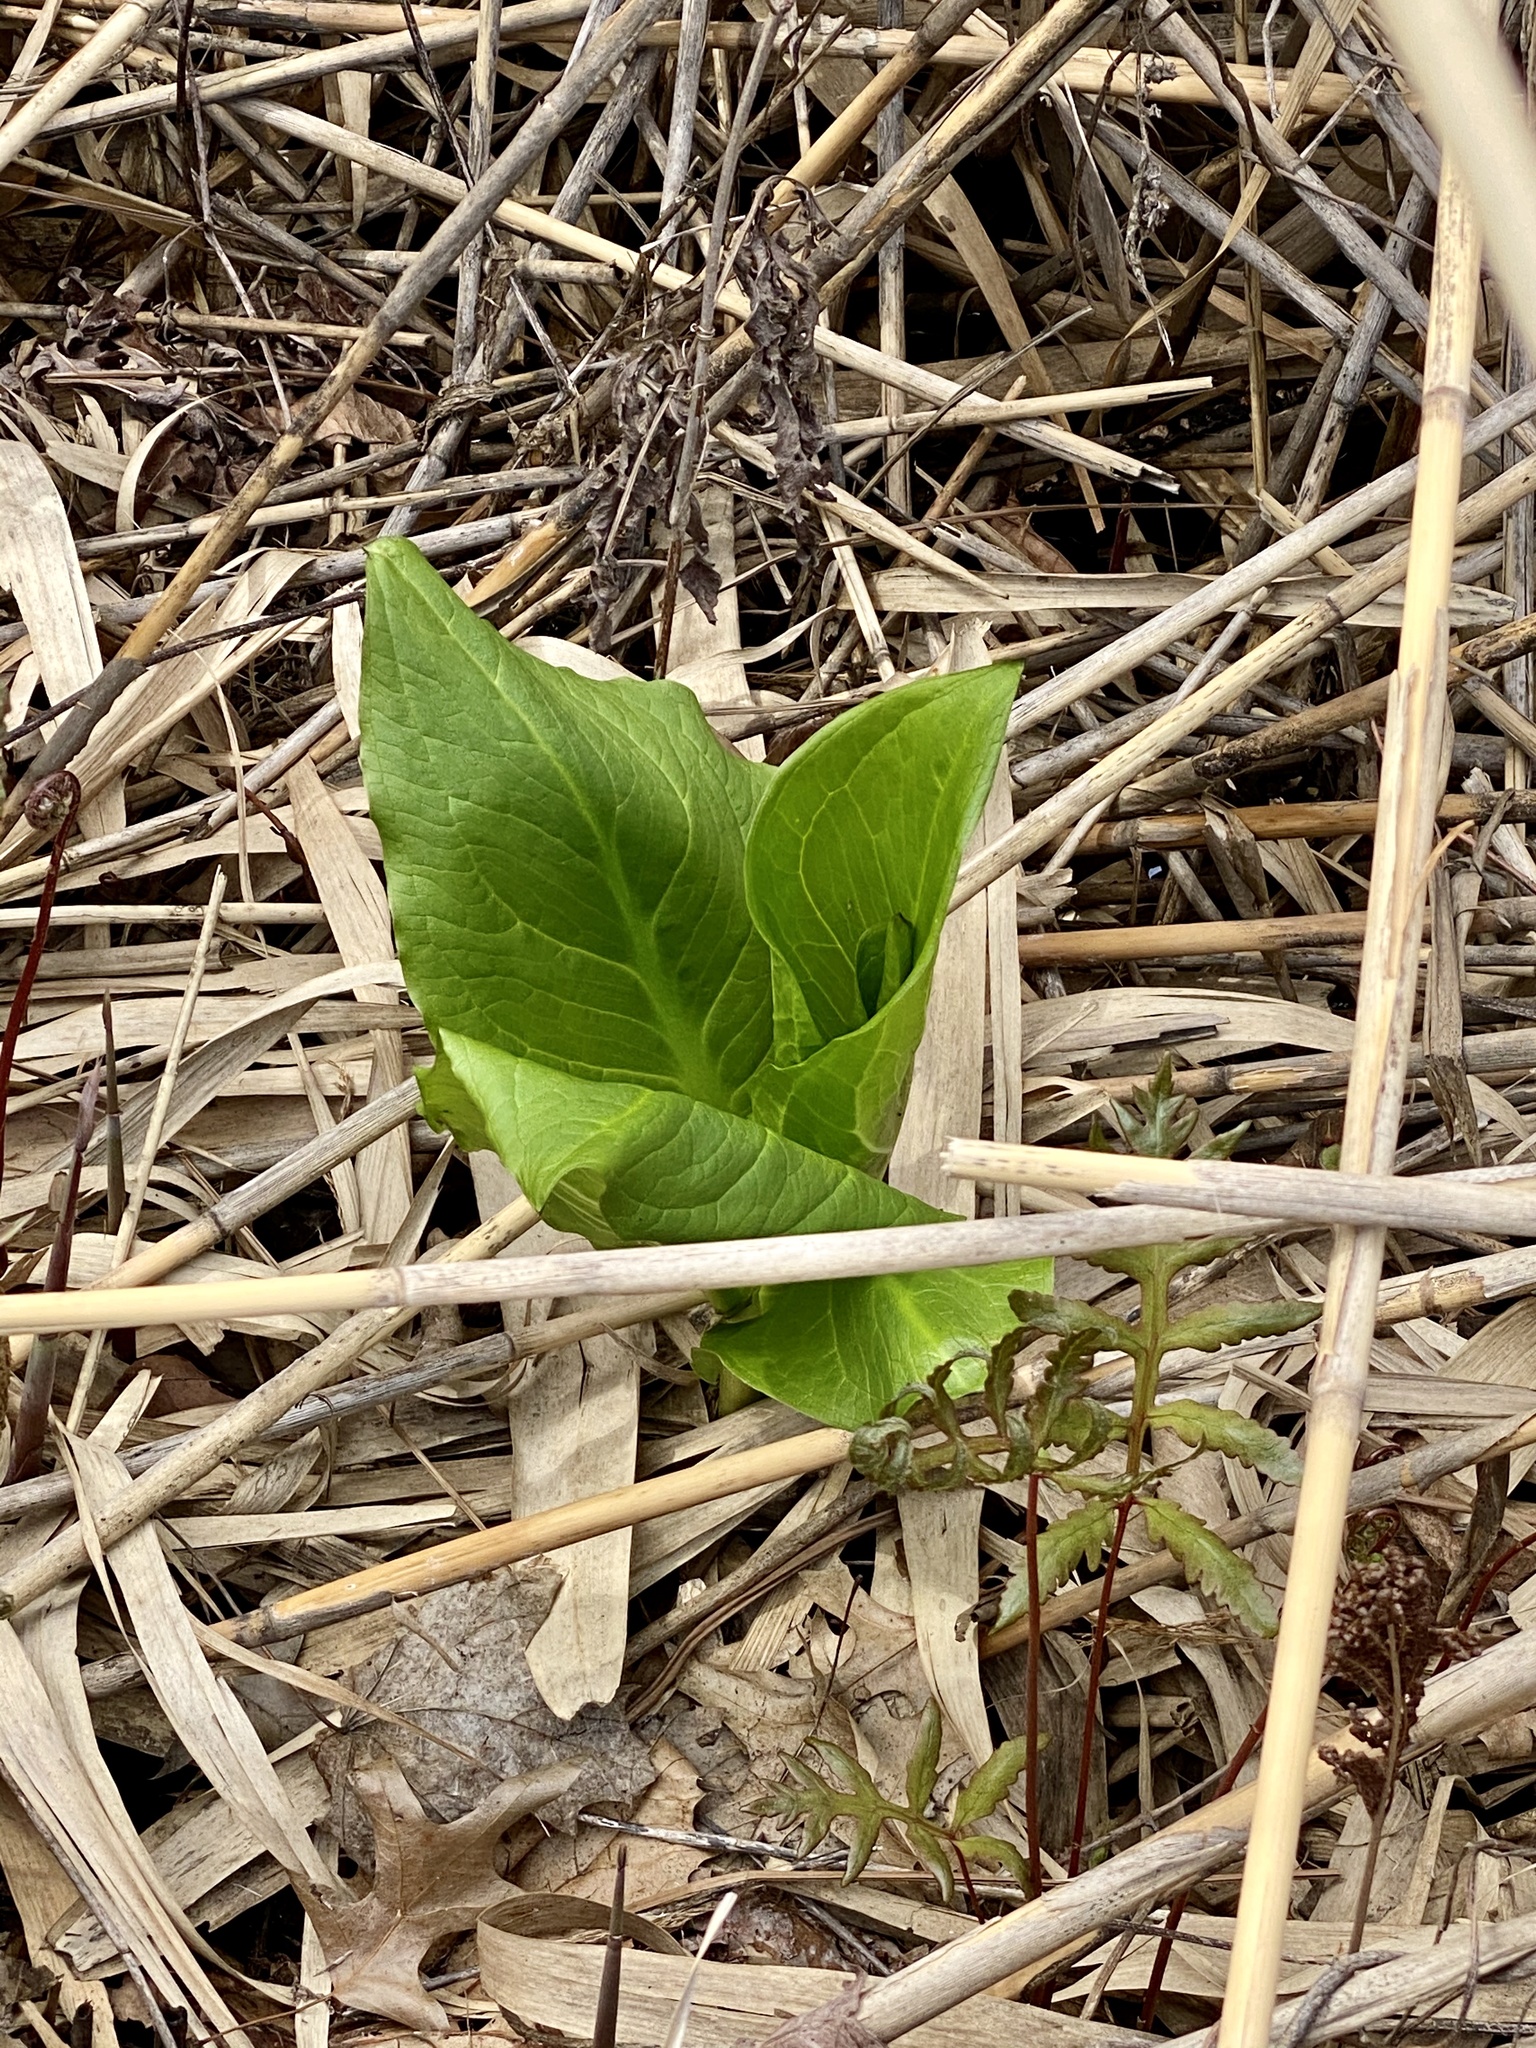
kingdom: Plantae
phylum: Tracheophyta
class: Liliopsida
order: Alismatales
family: Araceae
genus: Symplocarpus
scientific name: Symplocarpus foetidus
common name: Eastern skunk cabbage
